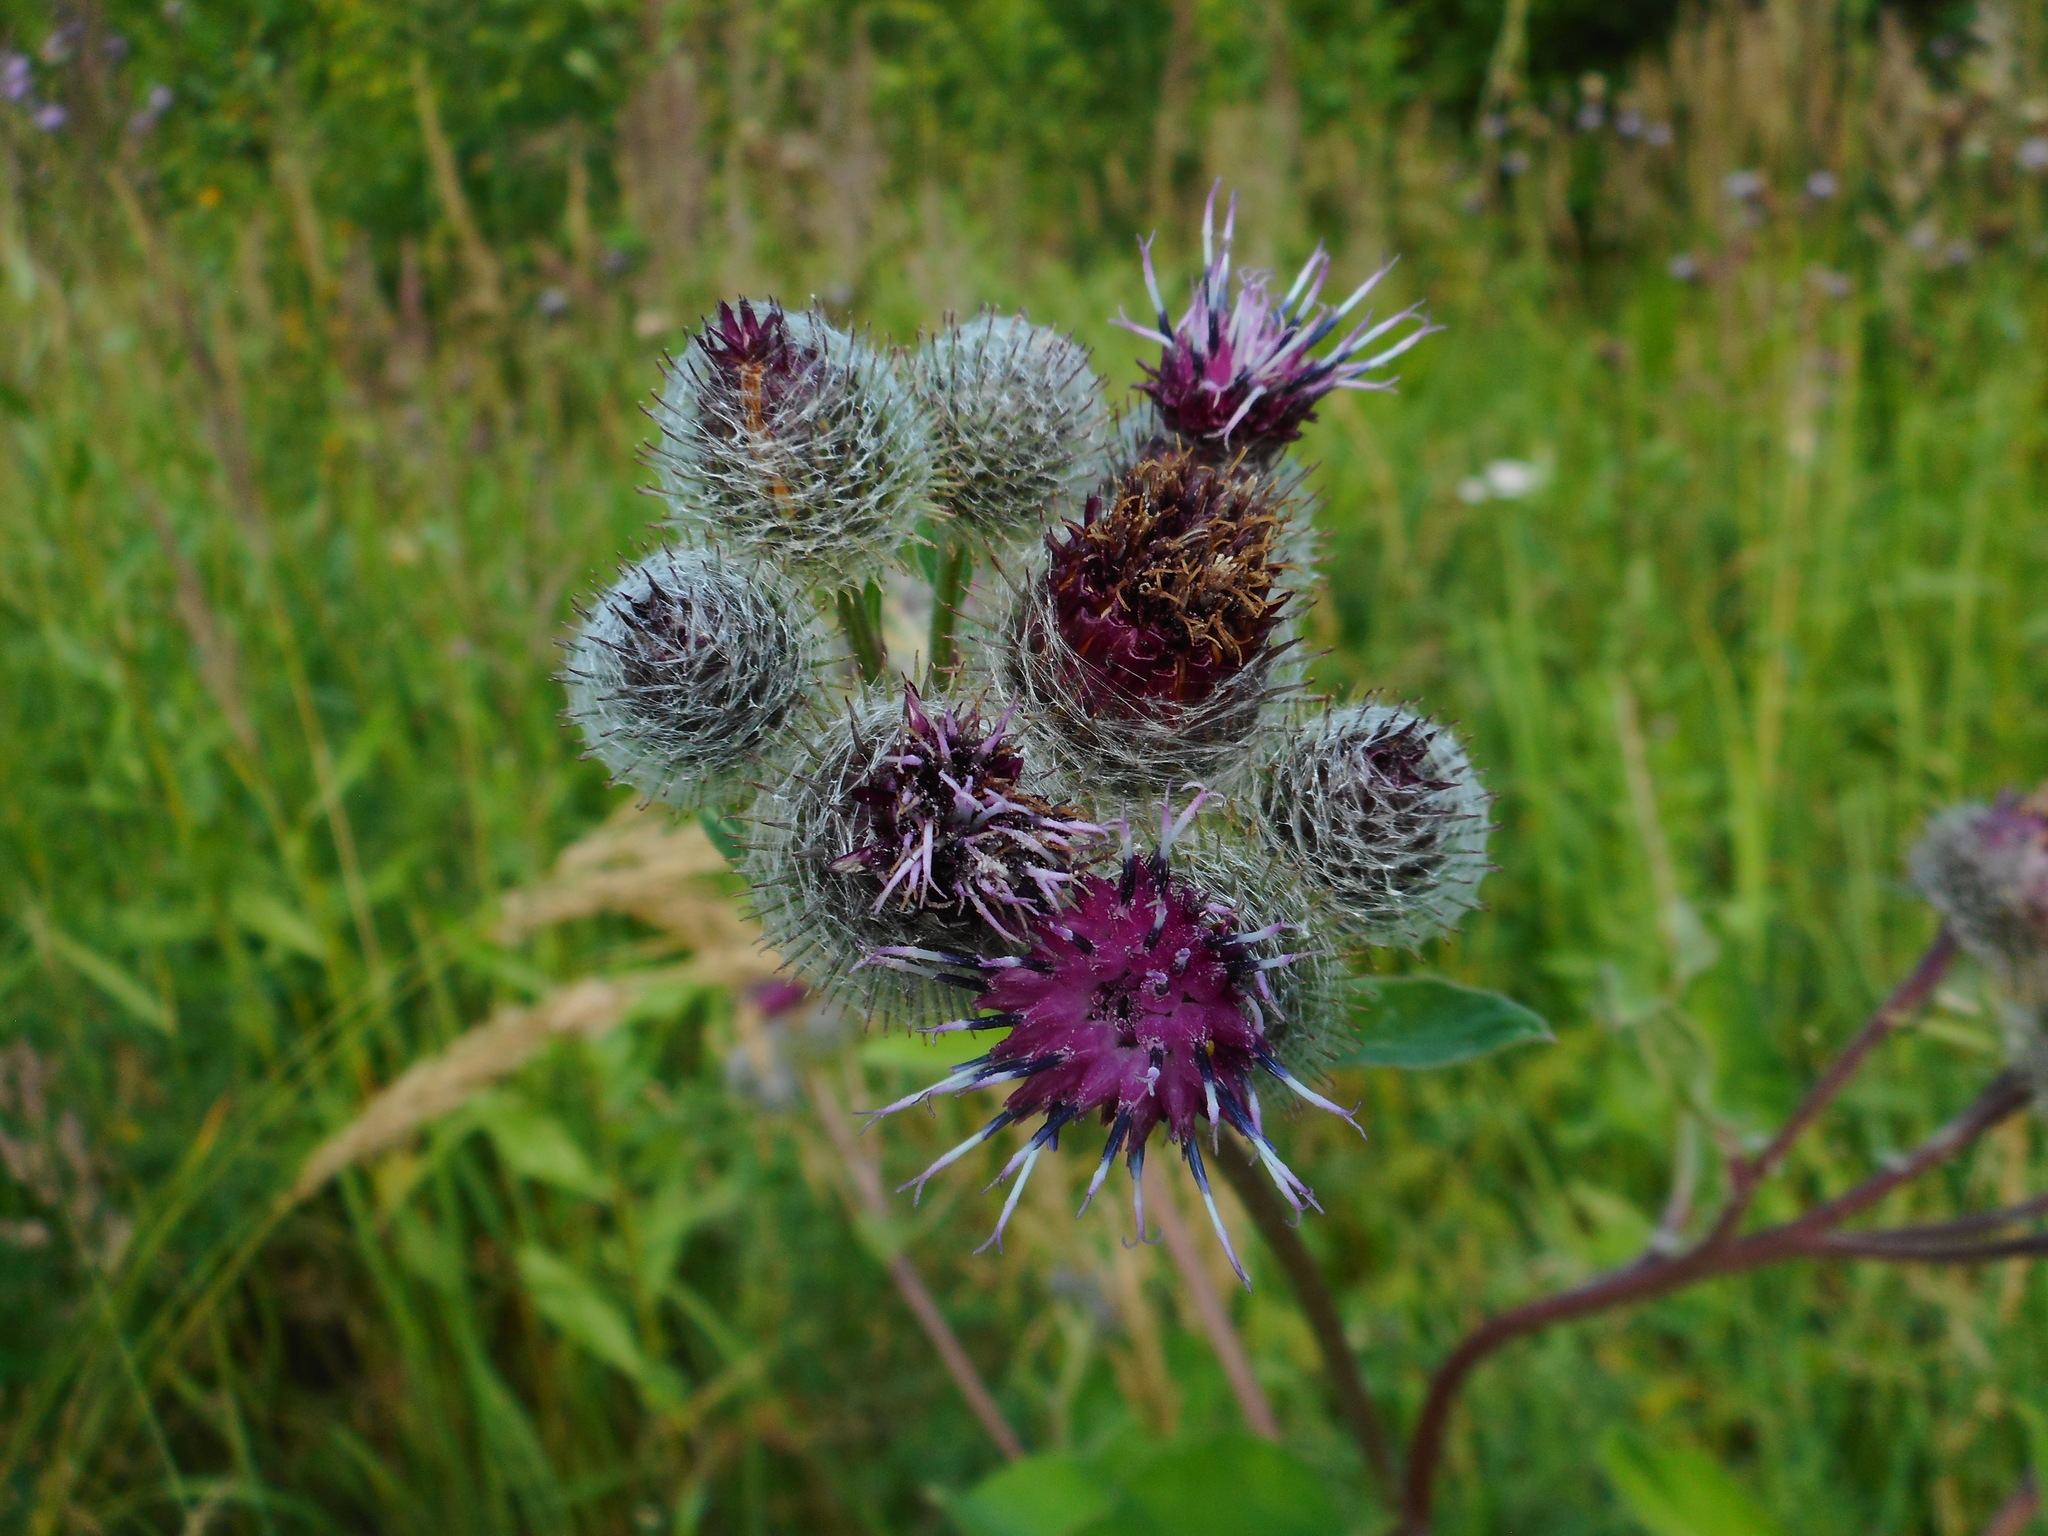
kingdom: Plantae
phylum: Tracheophyta
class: Magnoliopsida
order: Asterales
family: Asteraceae
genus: Arctium
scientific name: Arctium tomentosum
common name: Woolly burdock
